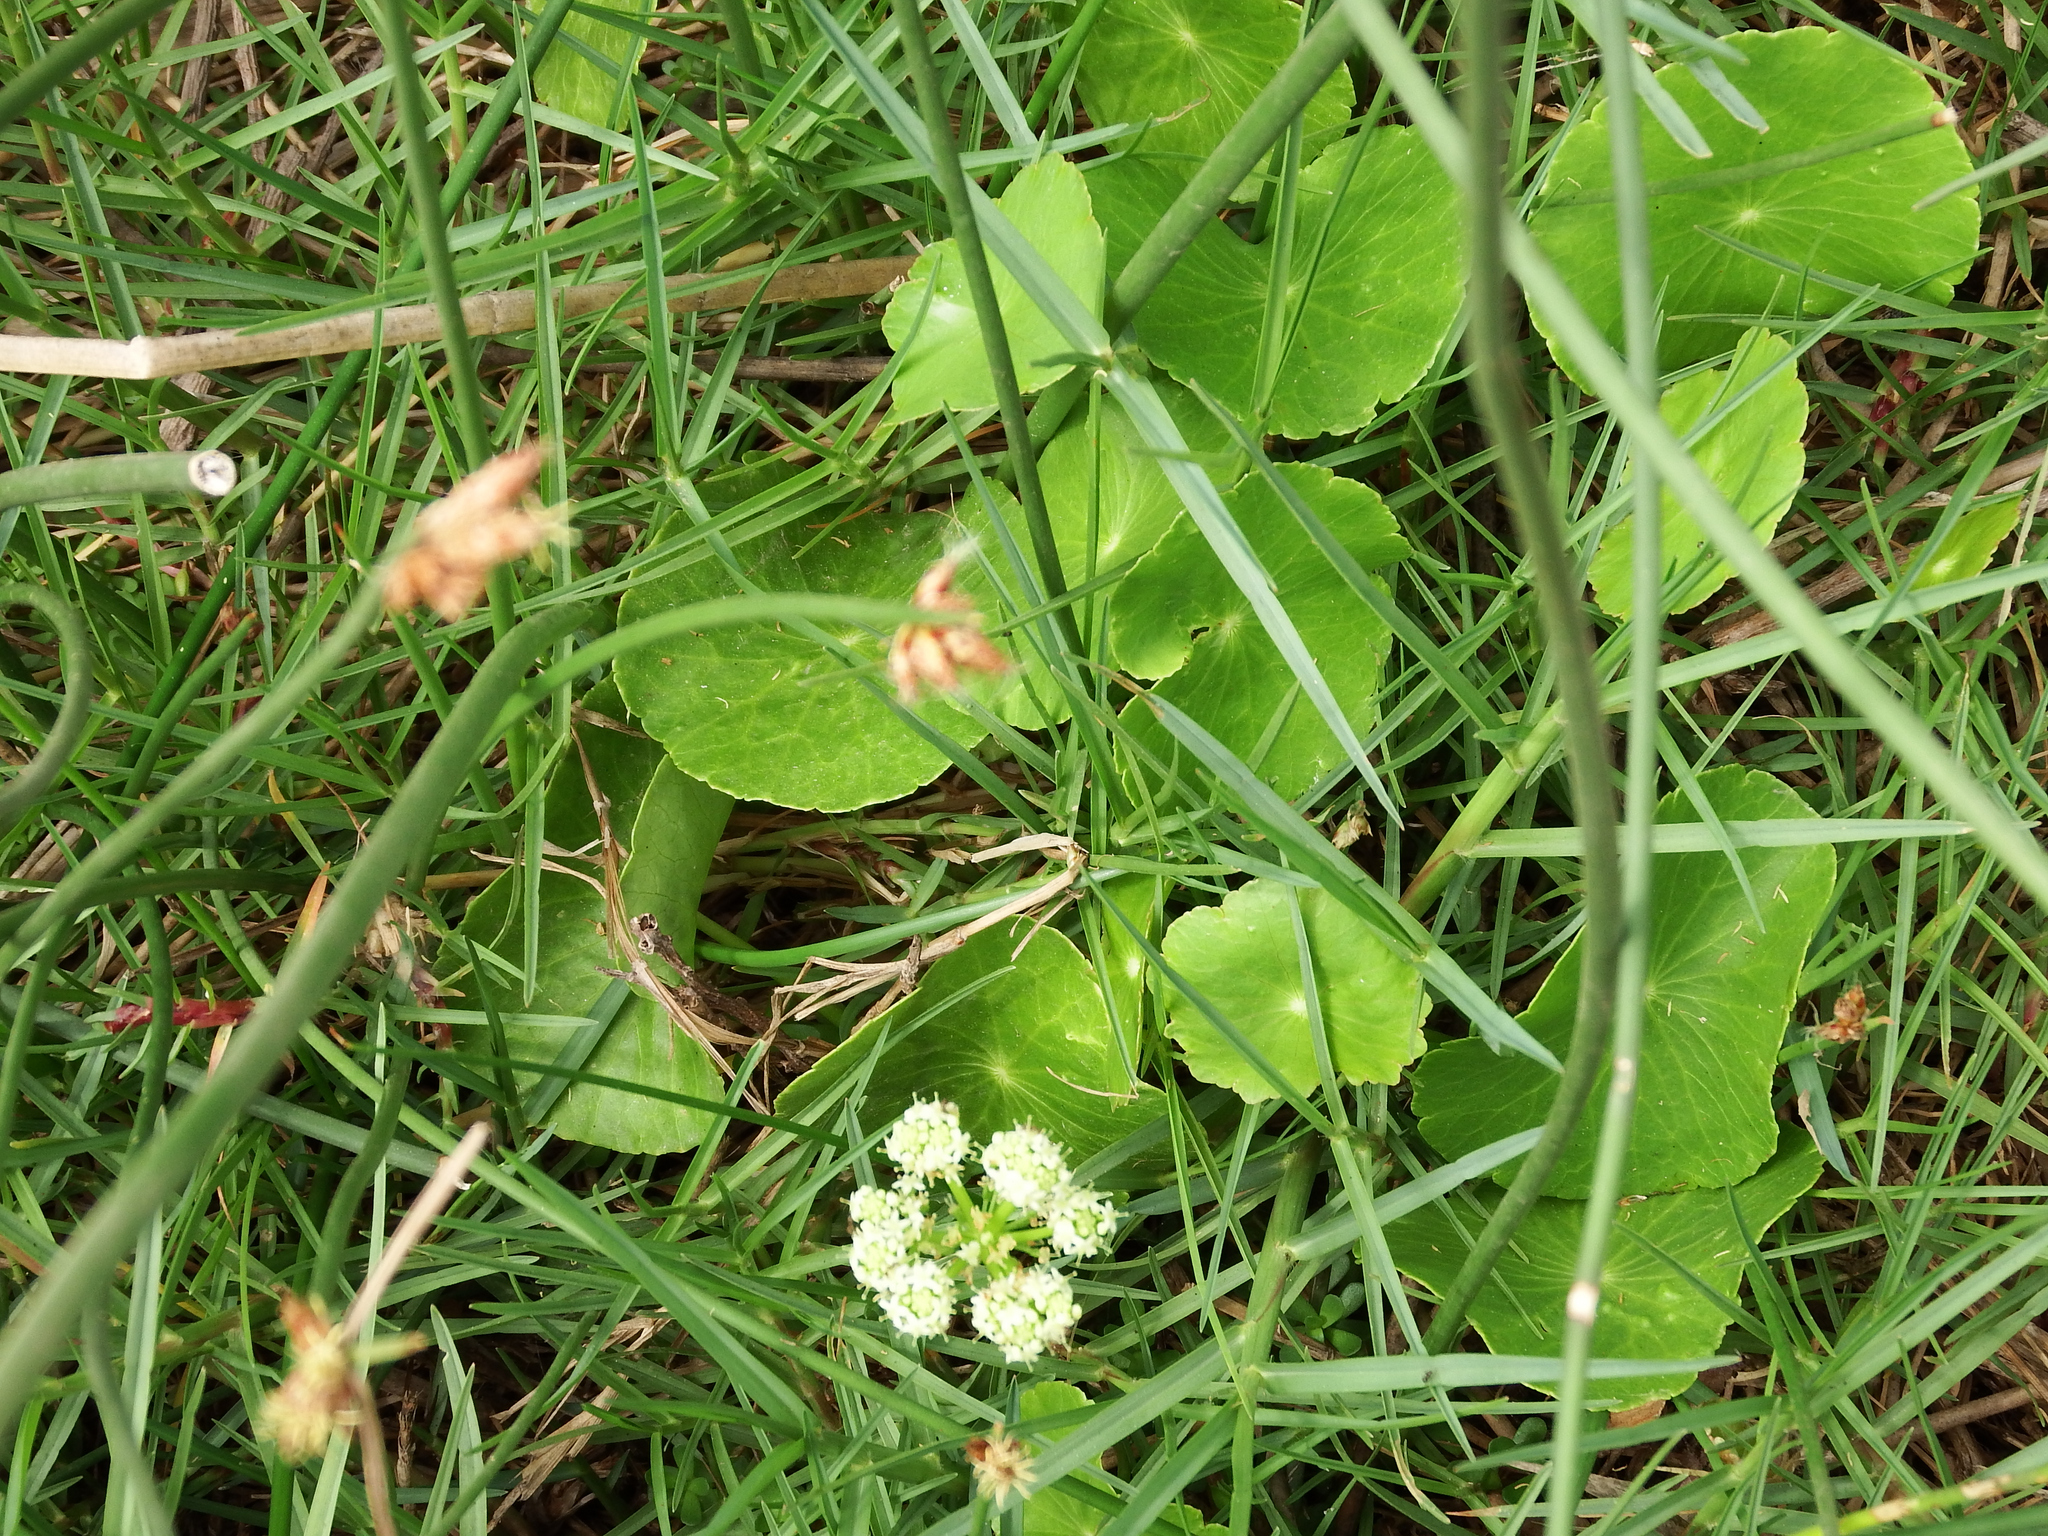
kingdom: Plantae
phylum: Tracheophyta
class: Magnoliopsida
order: Apiales
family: Araliaceae
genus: Hydrocotyle
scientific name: Hydrocotyle bonariensis
